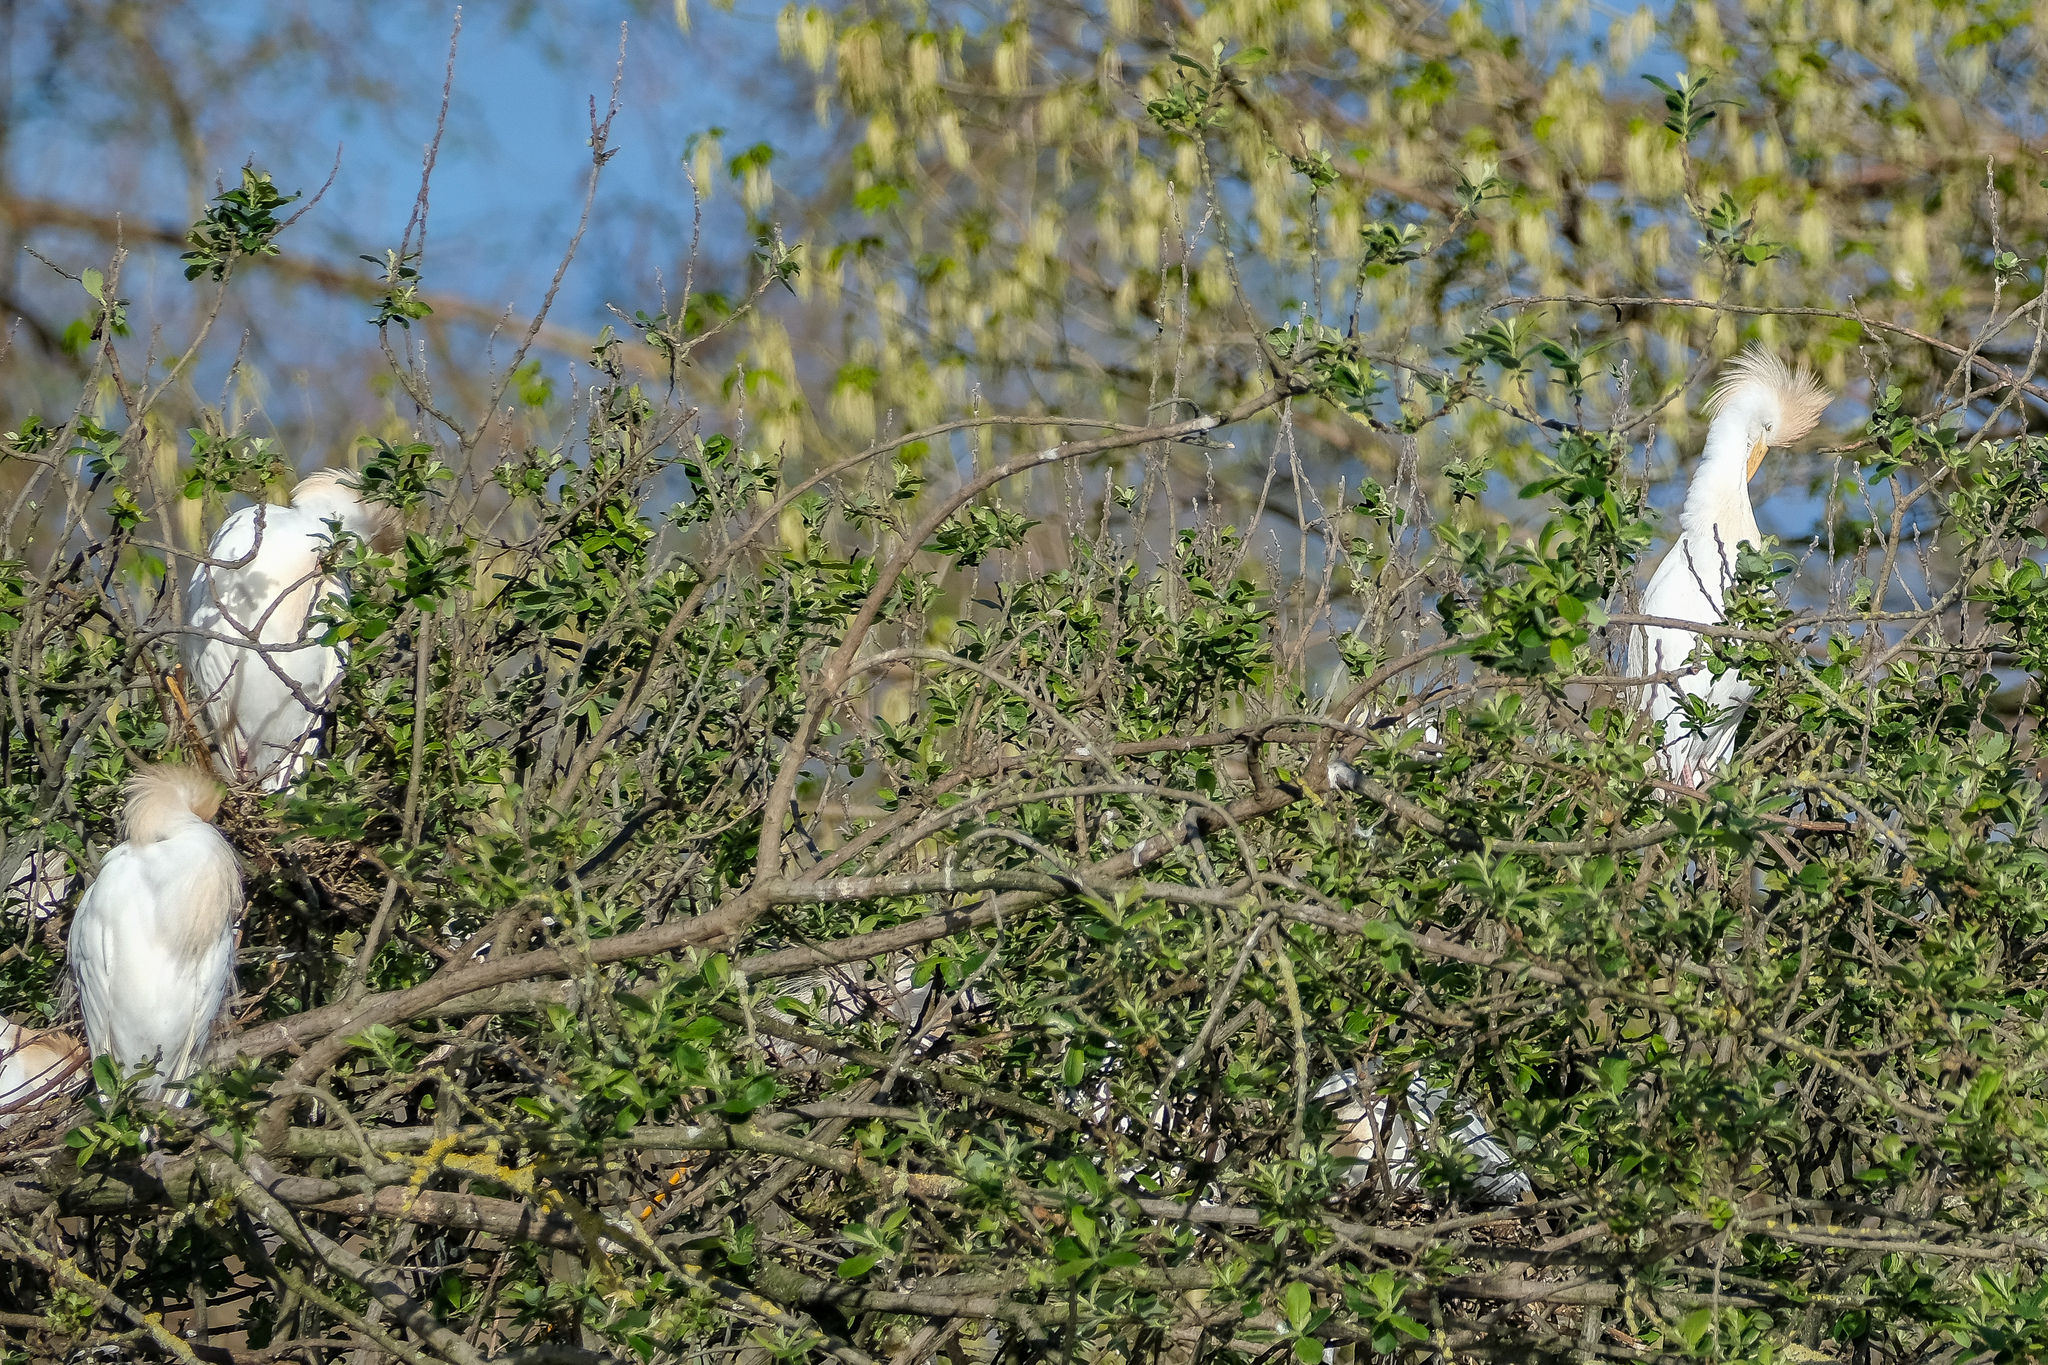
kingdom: Animalia
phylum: Chordata
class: Aves
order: Pelecaniformes
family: Ardeidae
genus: Bubulcus
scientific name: Bubulcus ibis
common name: Cattle egret
